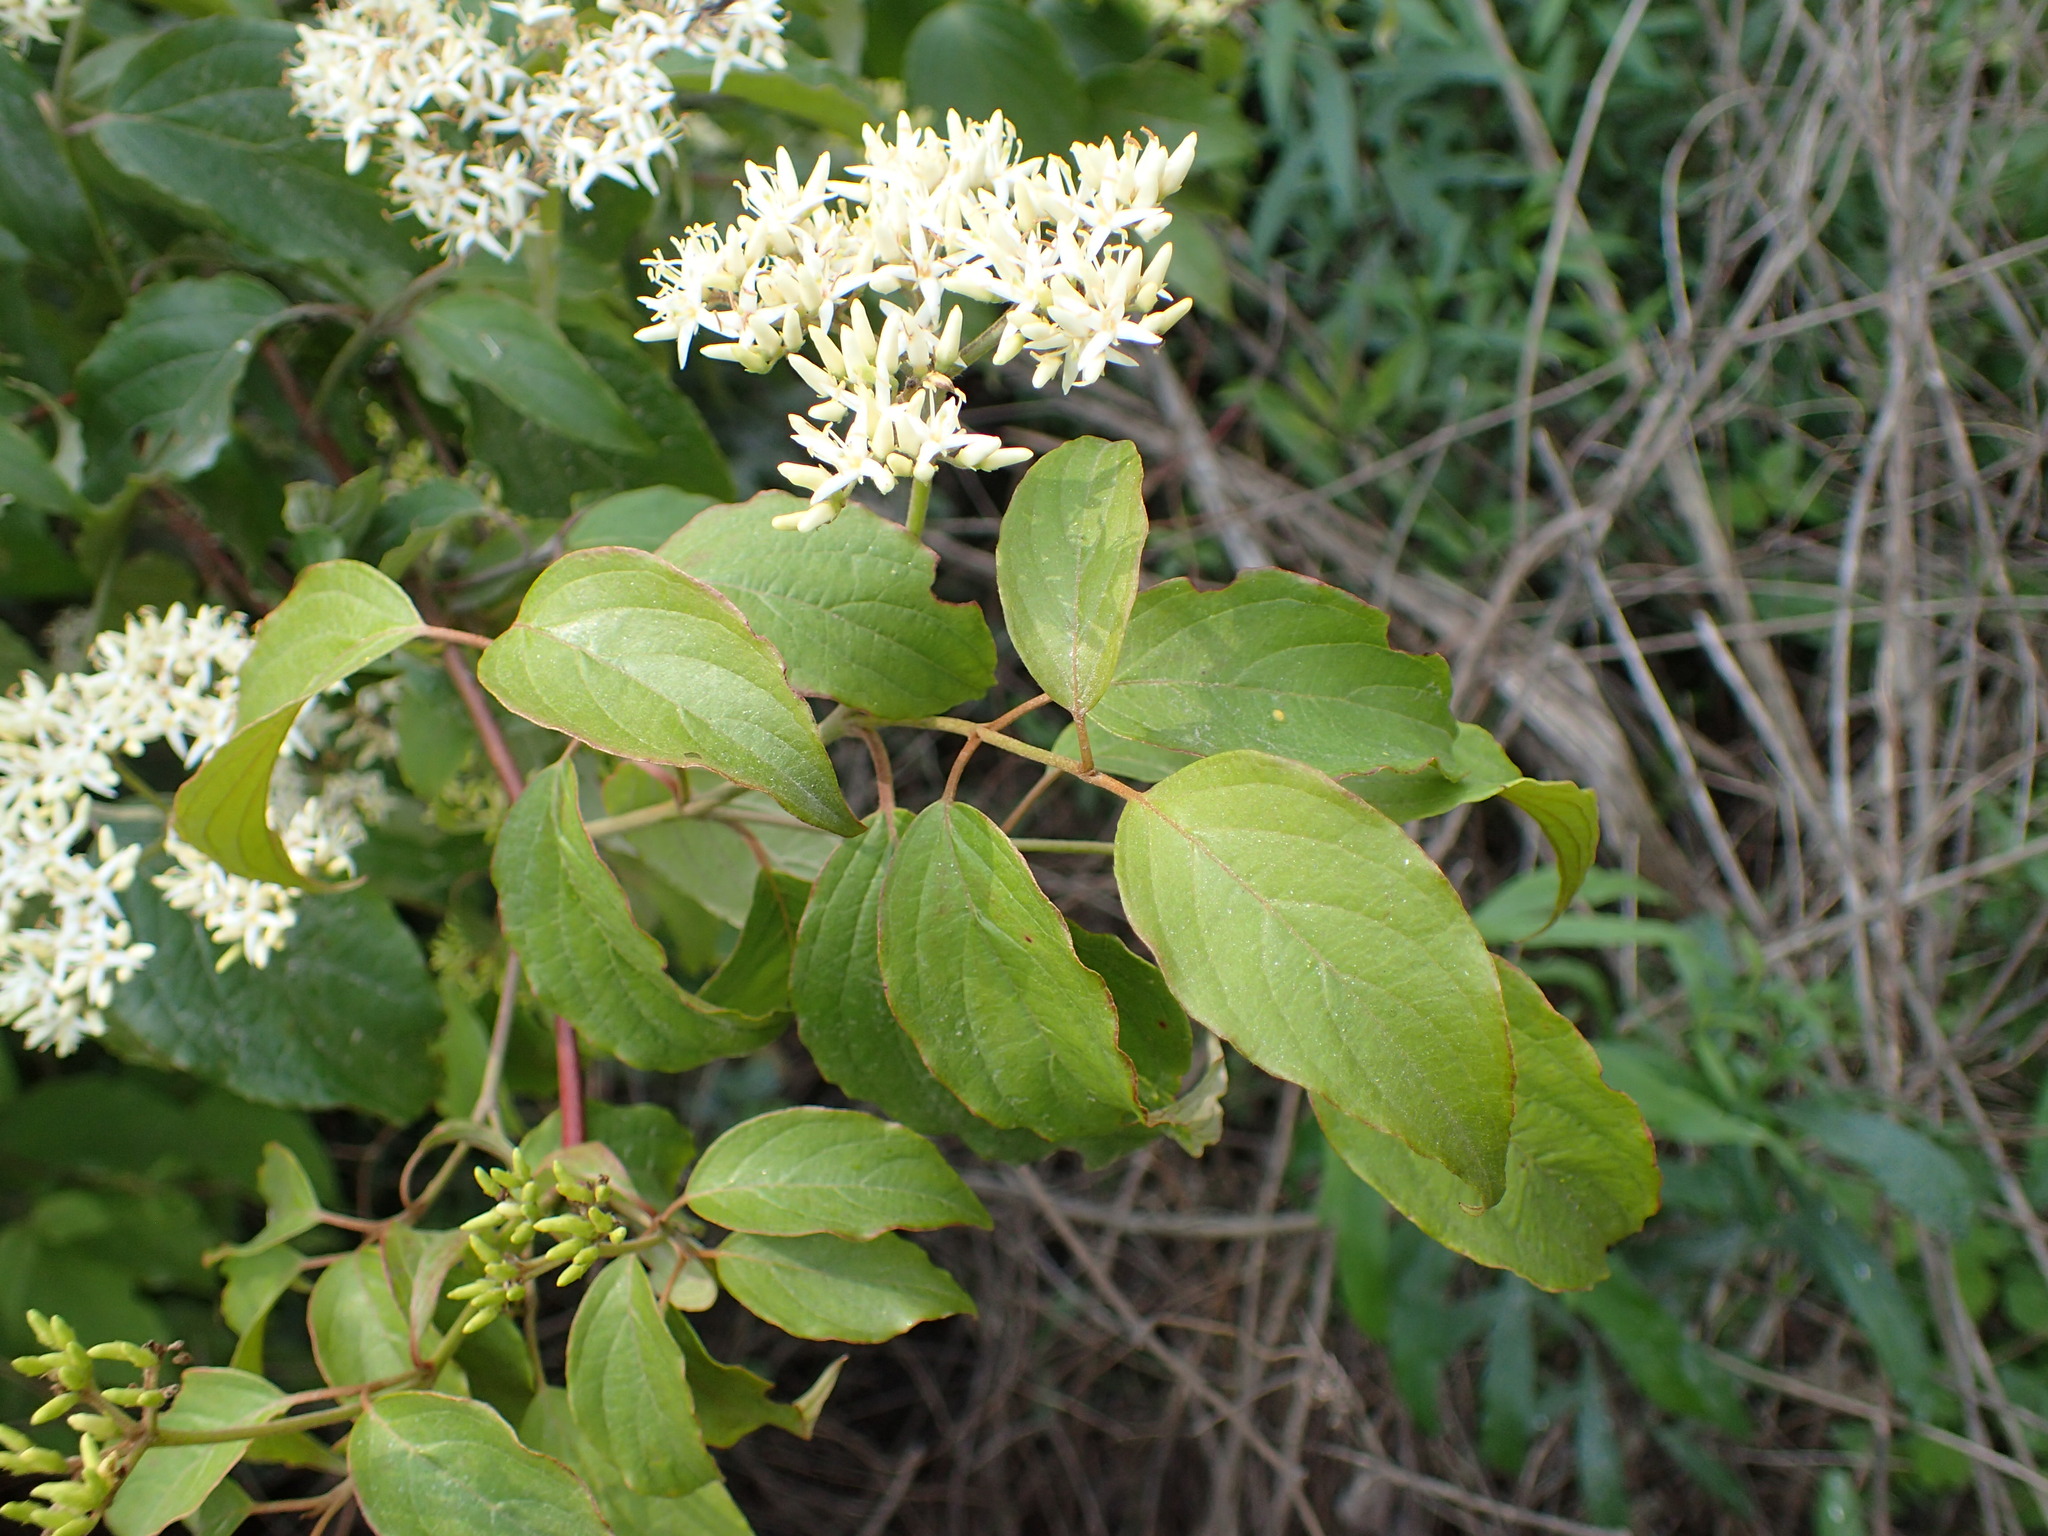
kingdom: Plantae
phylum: Tracheophyta
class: Magnoliopsida
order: Cornales
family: Cornaceae
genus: Cornus
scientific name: Cornus amomum
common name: Silky dogwood
